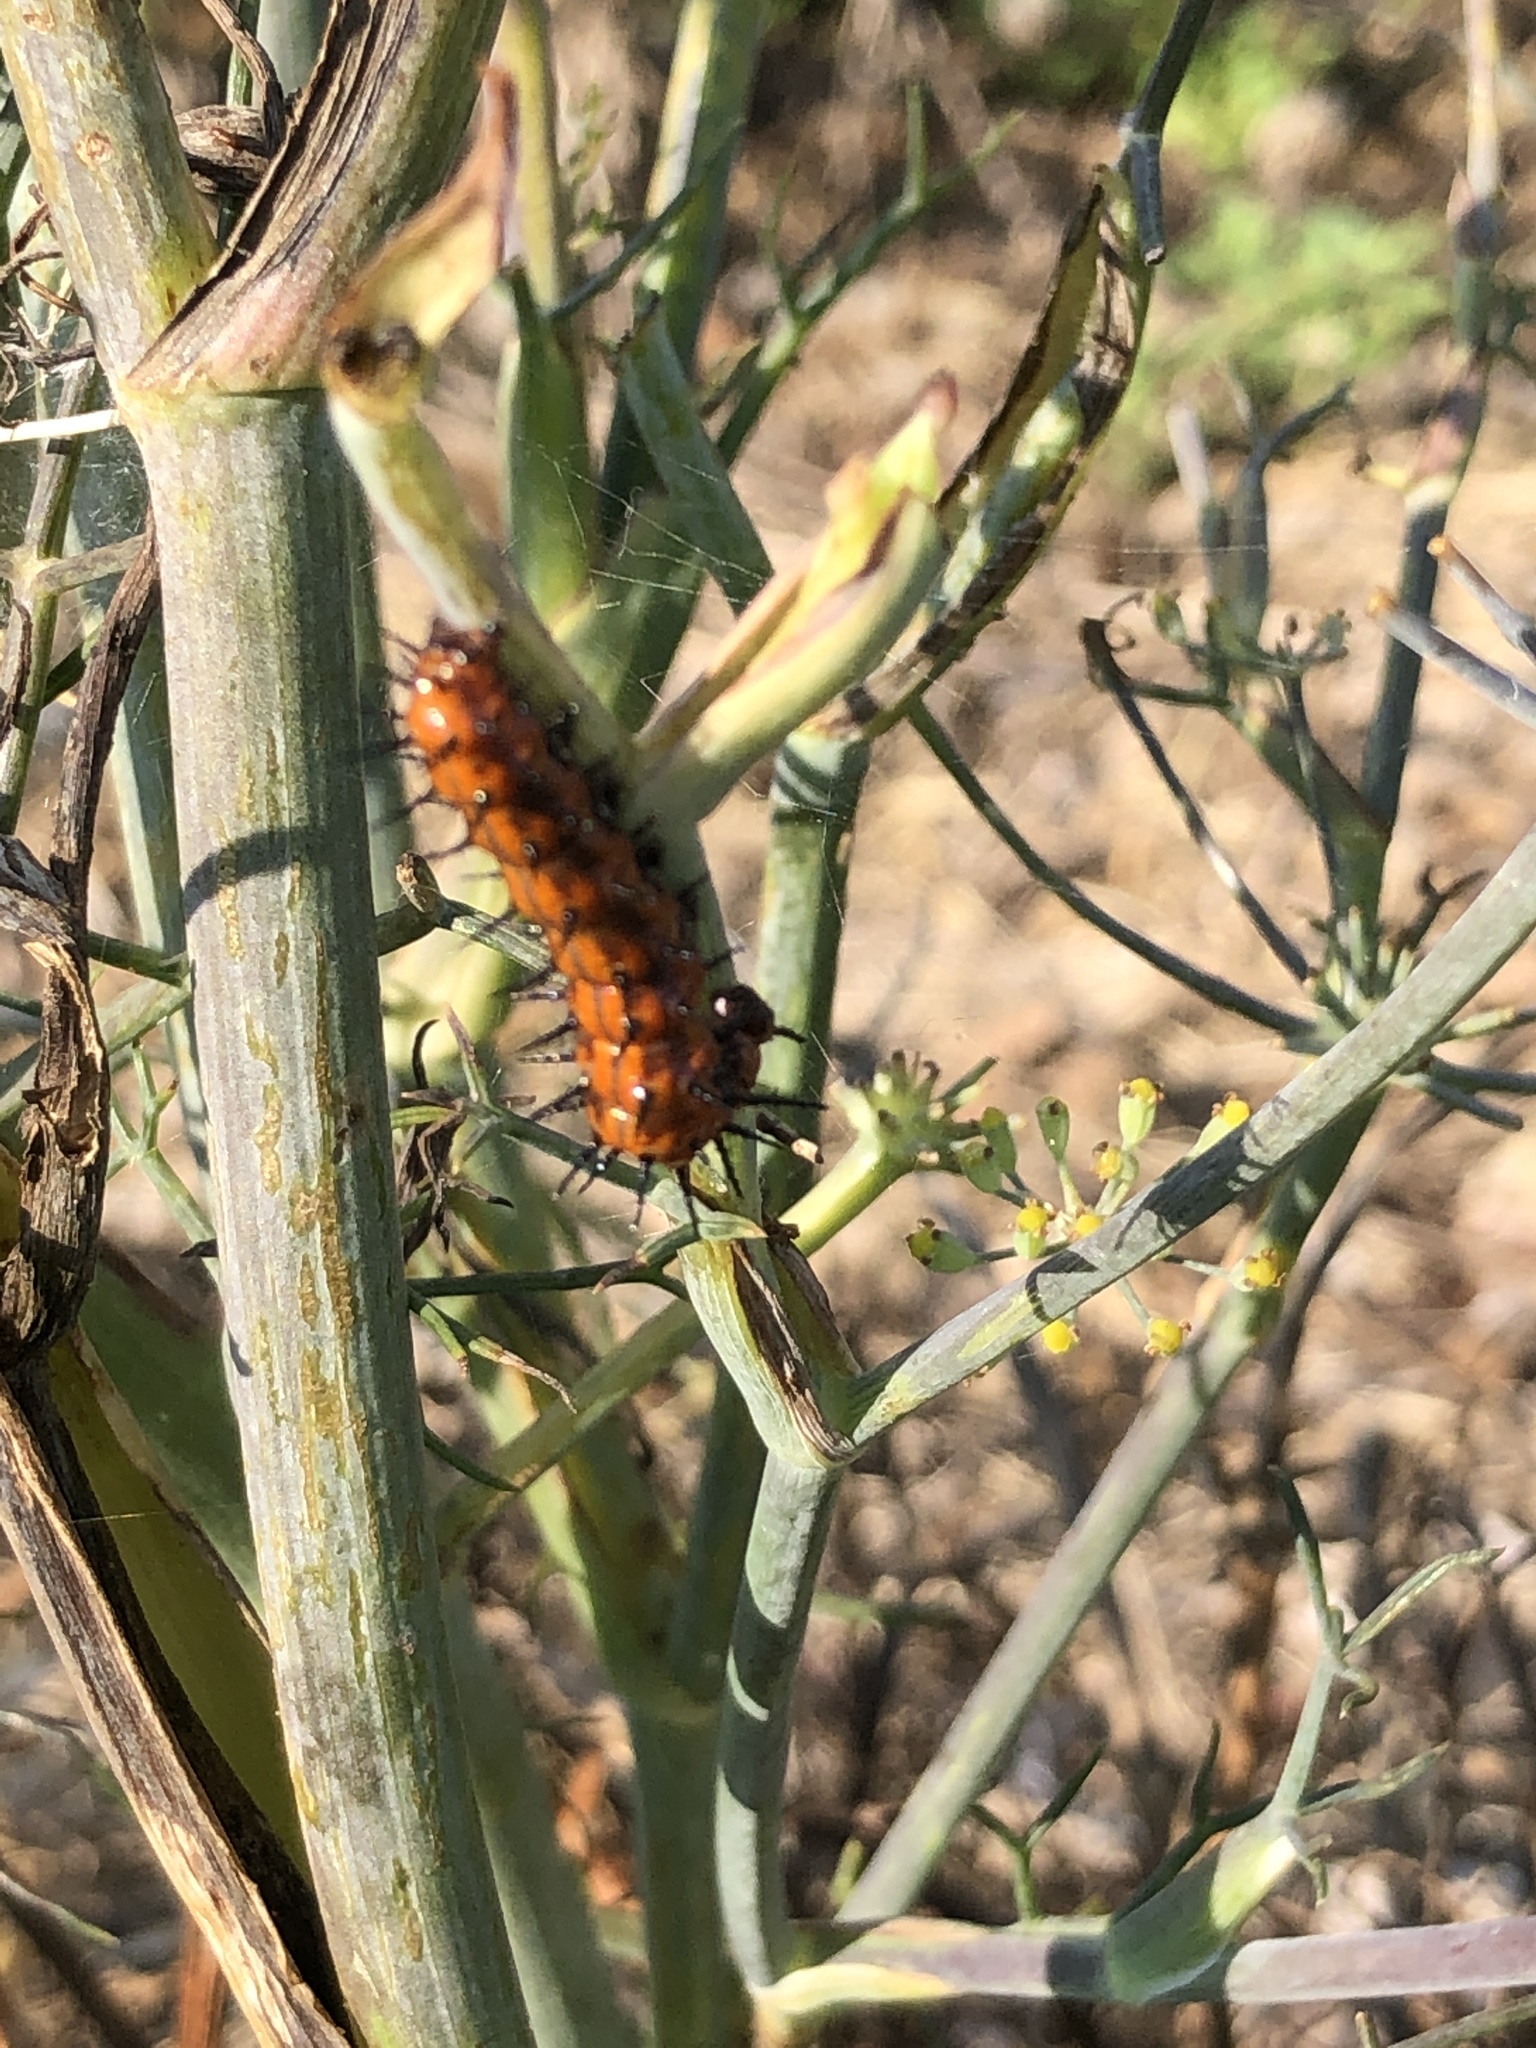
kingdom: Animalia
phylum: Arthropoda
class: Insecta
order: Lepidoptera
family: Nymphalidae
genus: Dione
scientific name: Dione vanillae
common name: Gulf fritillary
